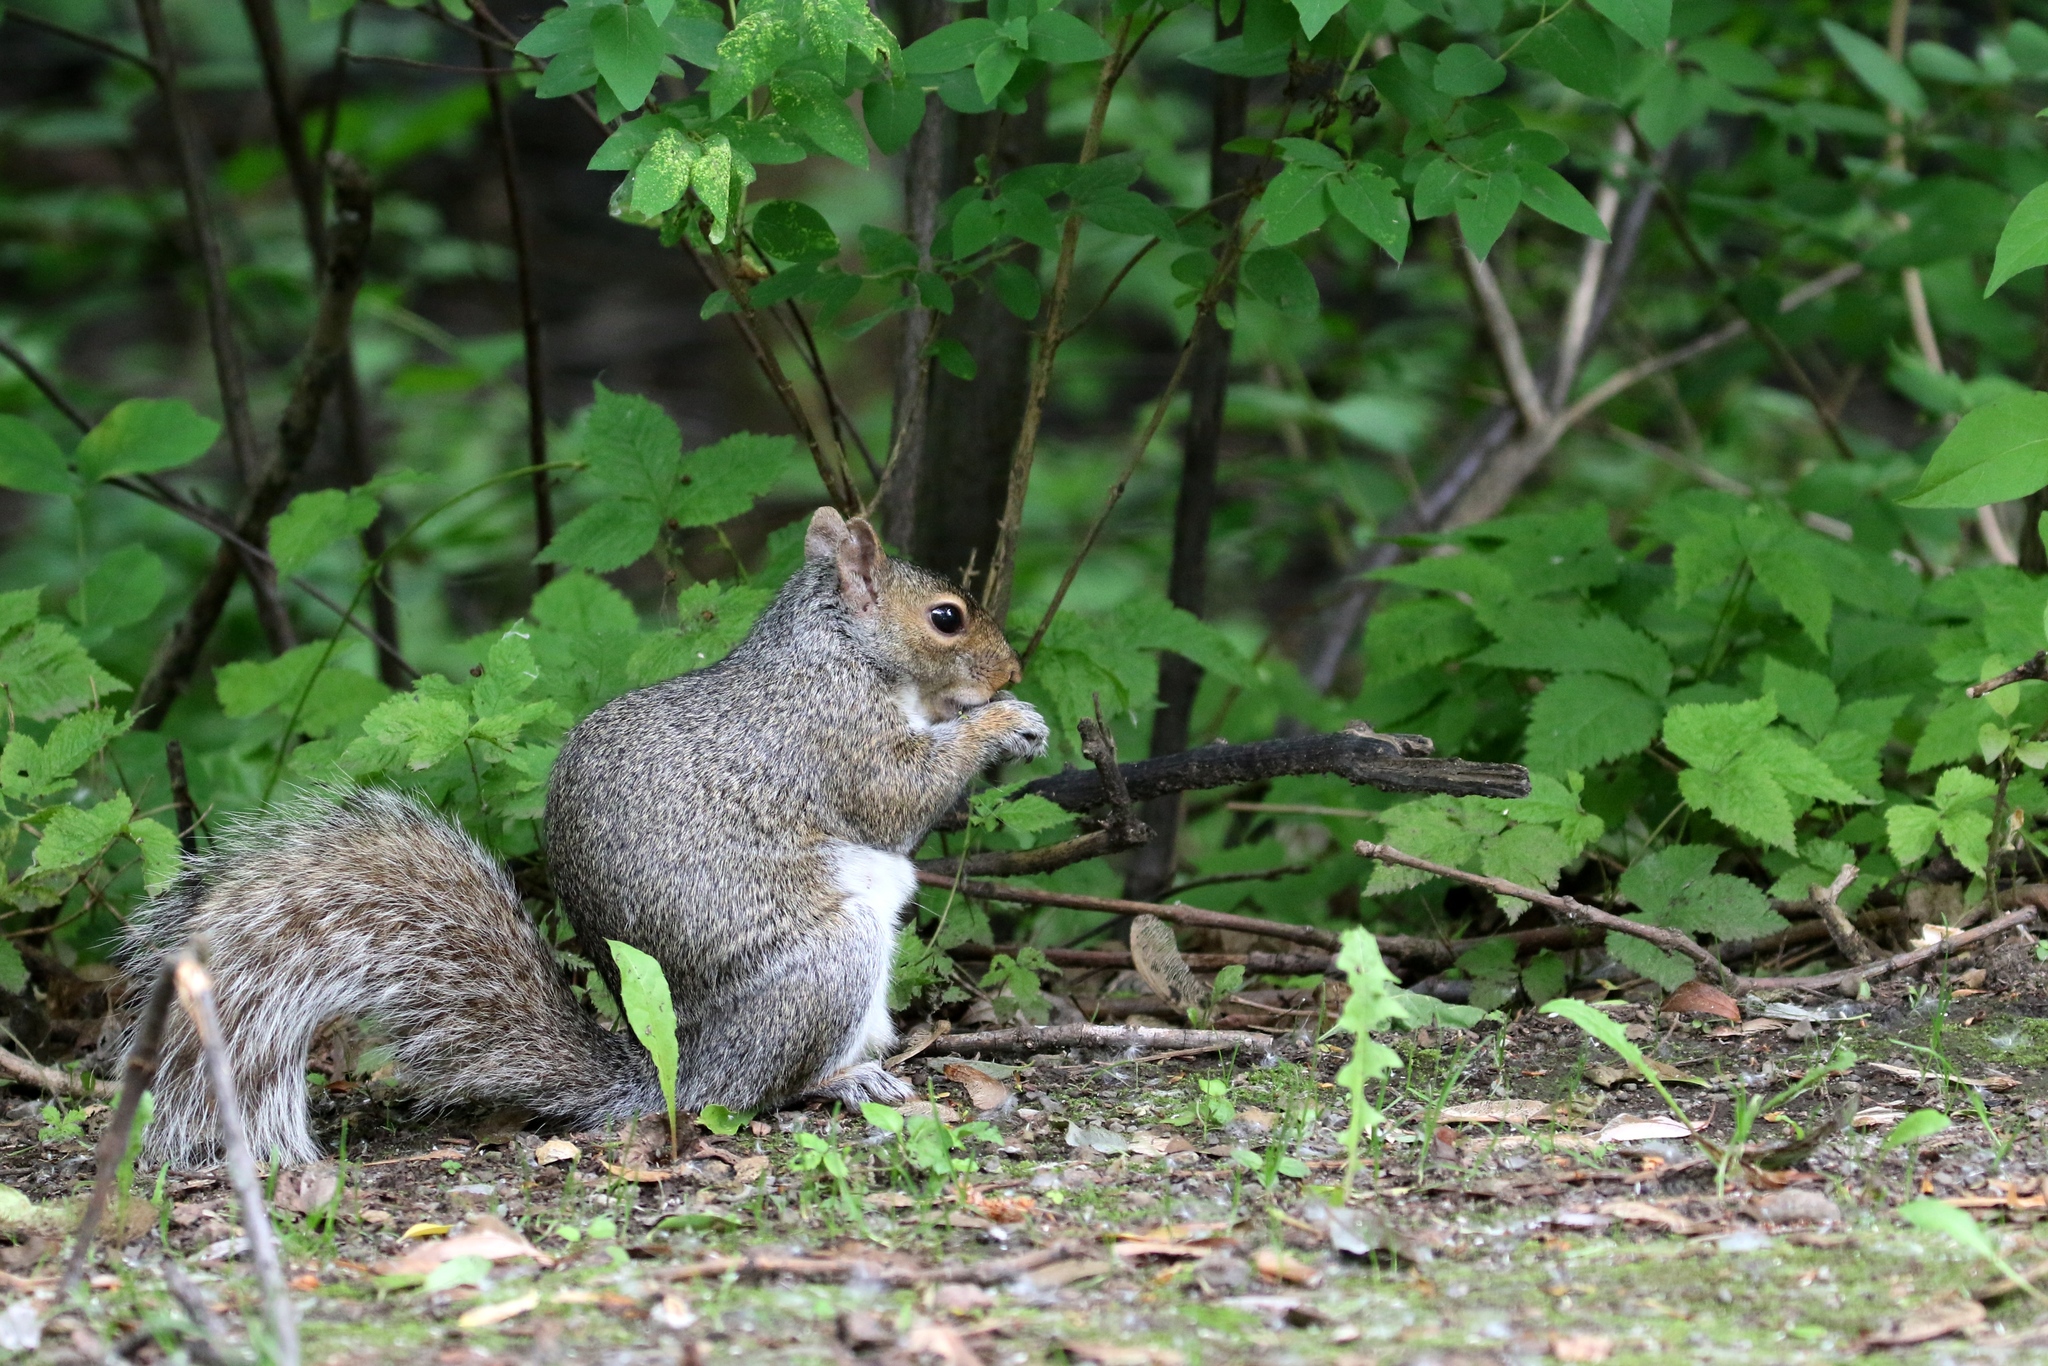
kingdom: Animalia
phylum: Chordata
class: Mammalia
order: Rodentia
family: Sciuridae
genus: Sciurus
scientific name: Sciurus carolinensis
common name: Eastern gray squirrel
